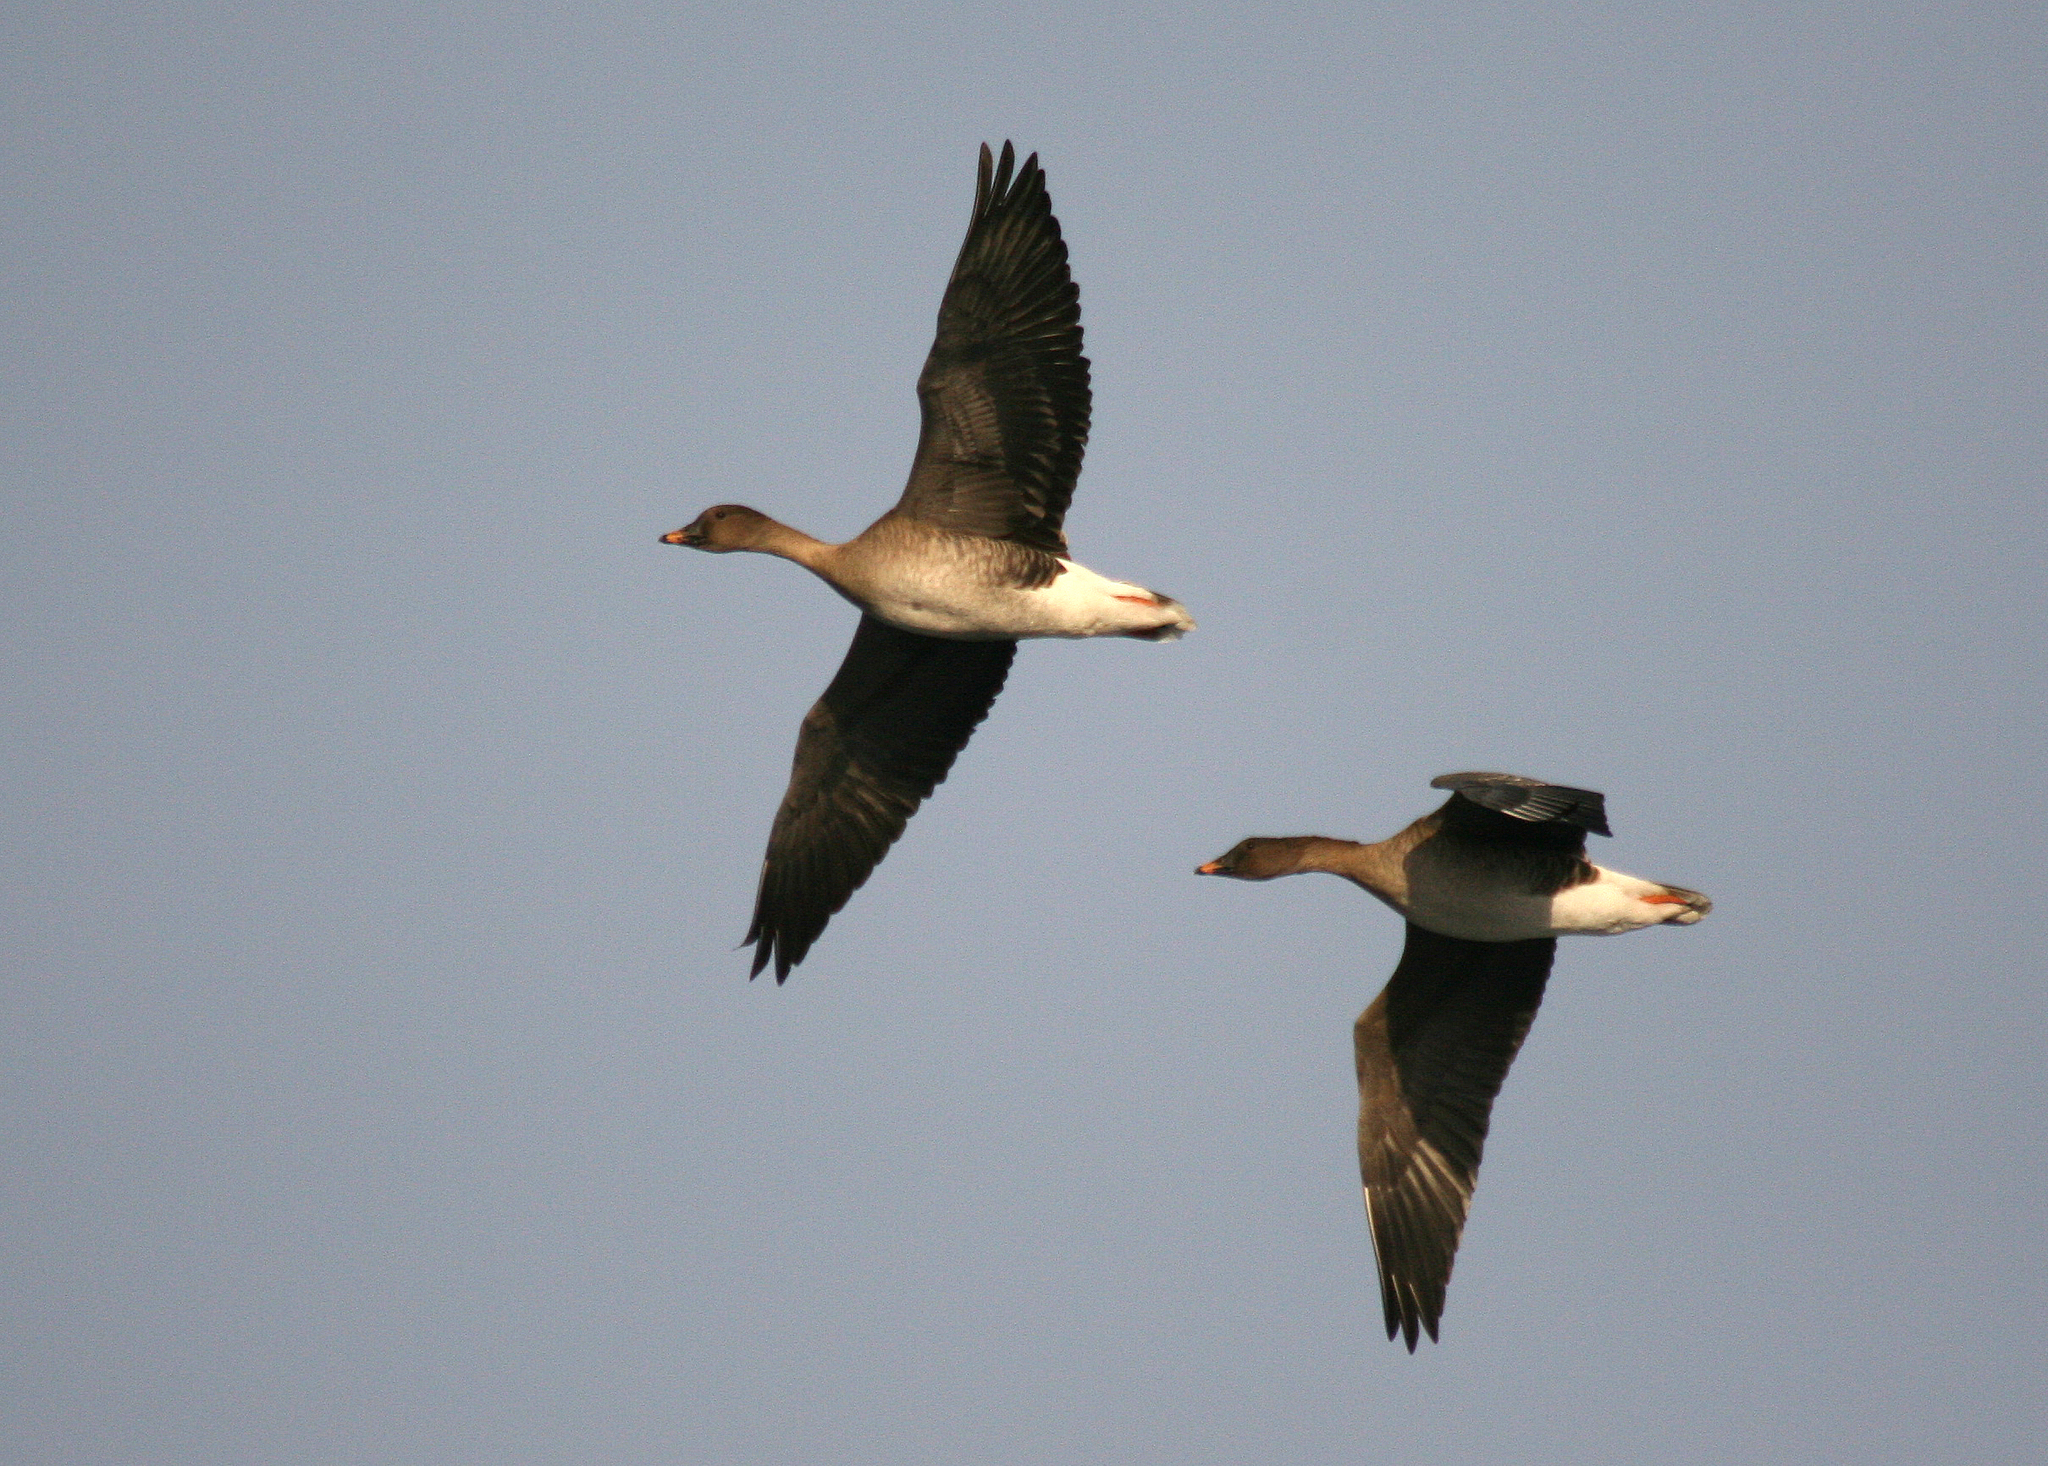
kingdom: Animalia
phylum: Chordata
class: Aves
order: Anseriformes
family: Anatidae
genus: Anser
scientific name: Anser serrirostris
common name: Tundra bean goose
